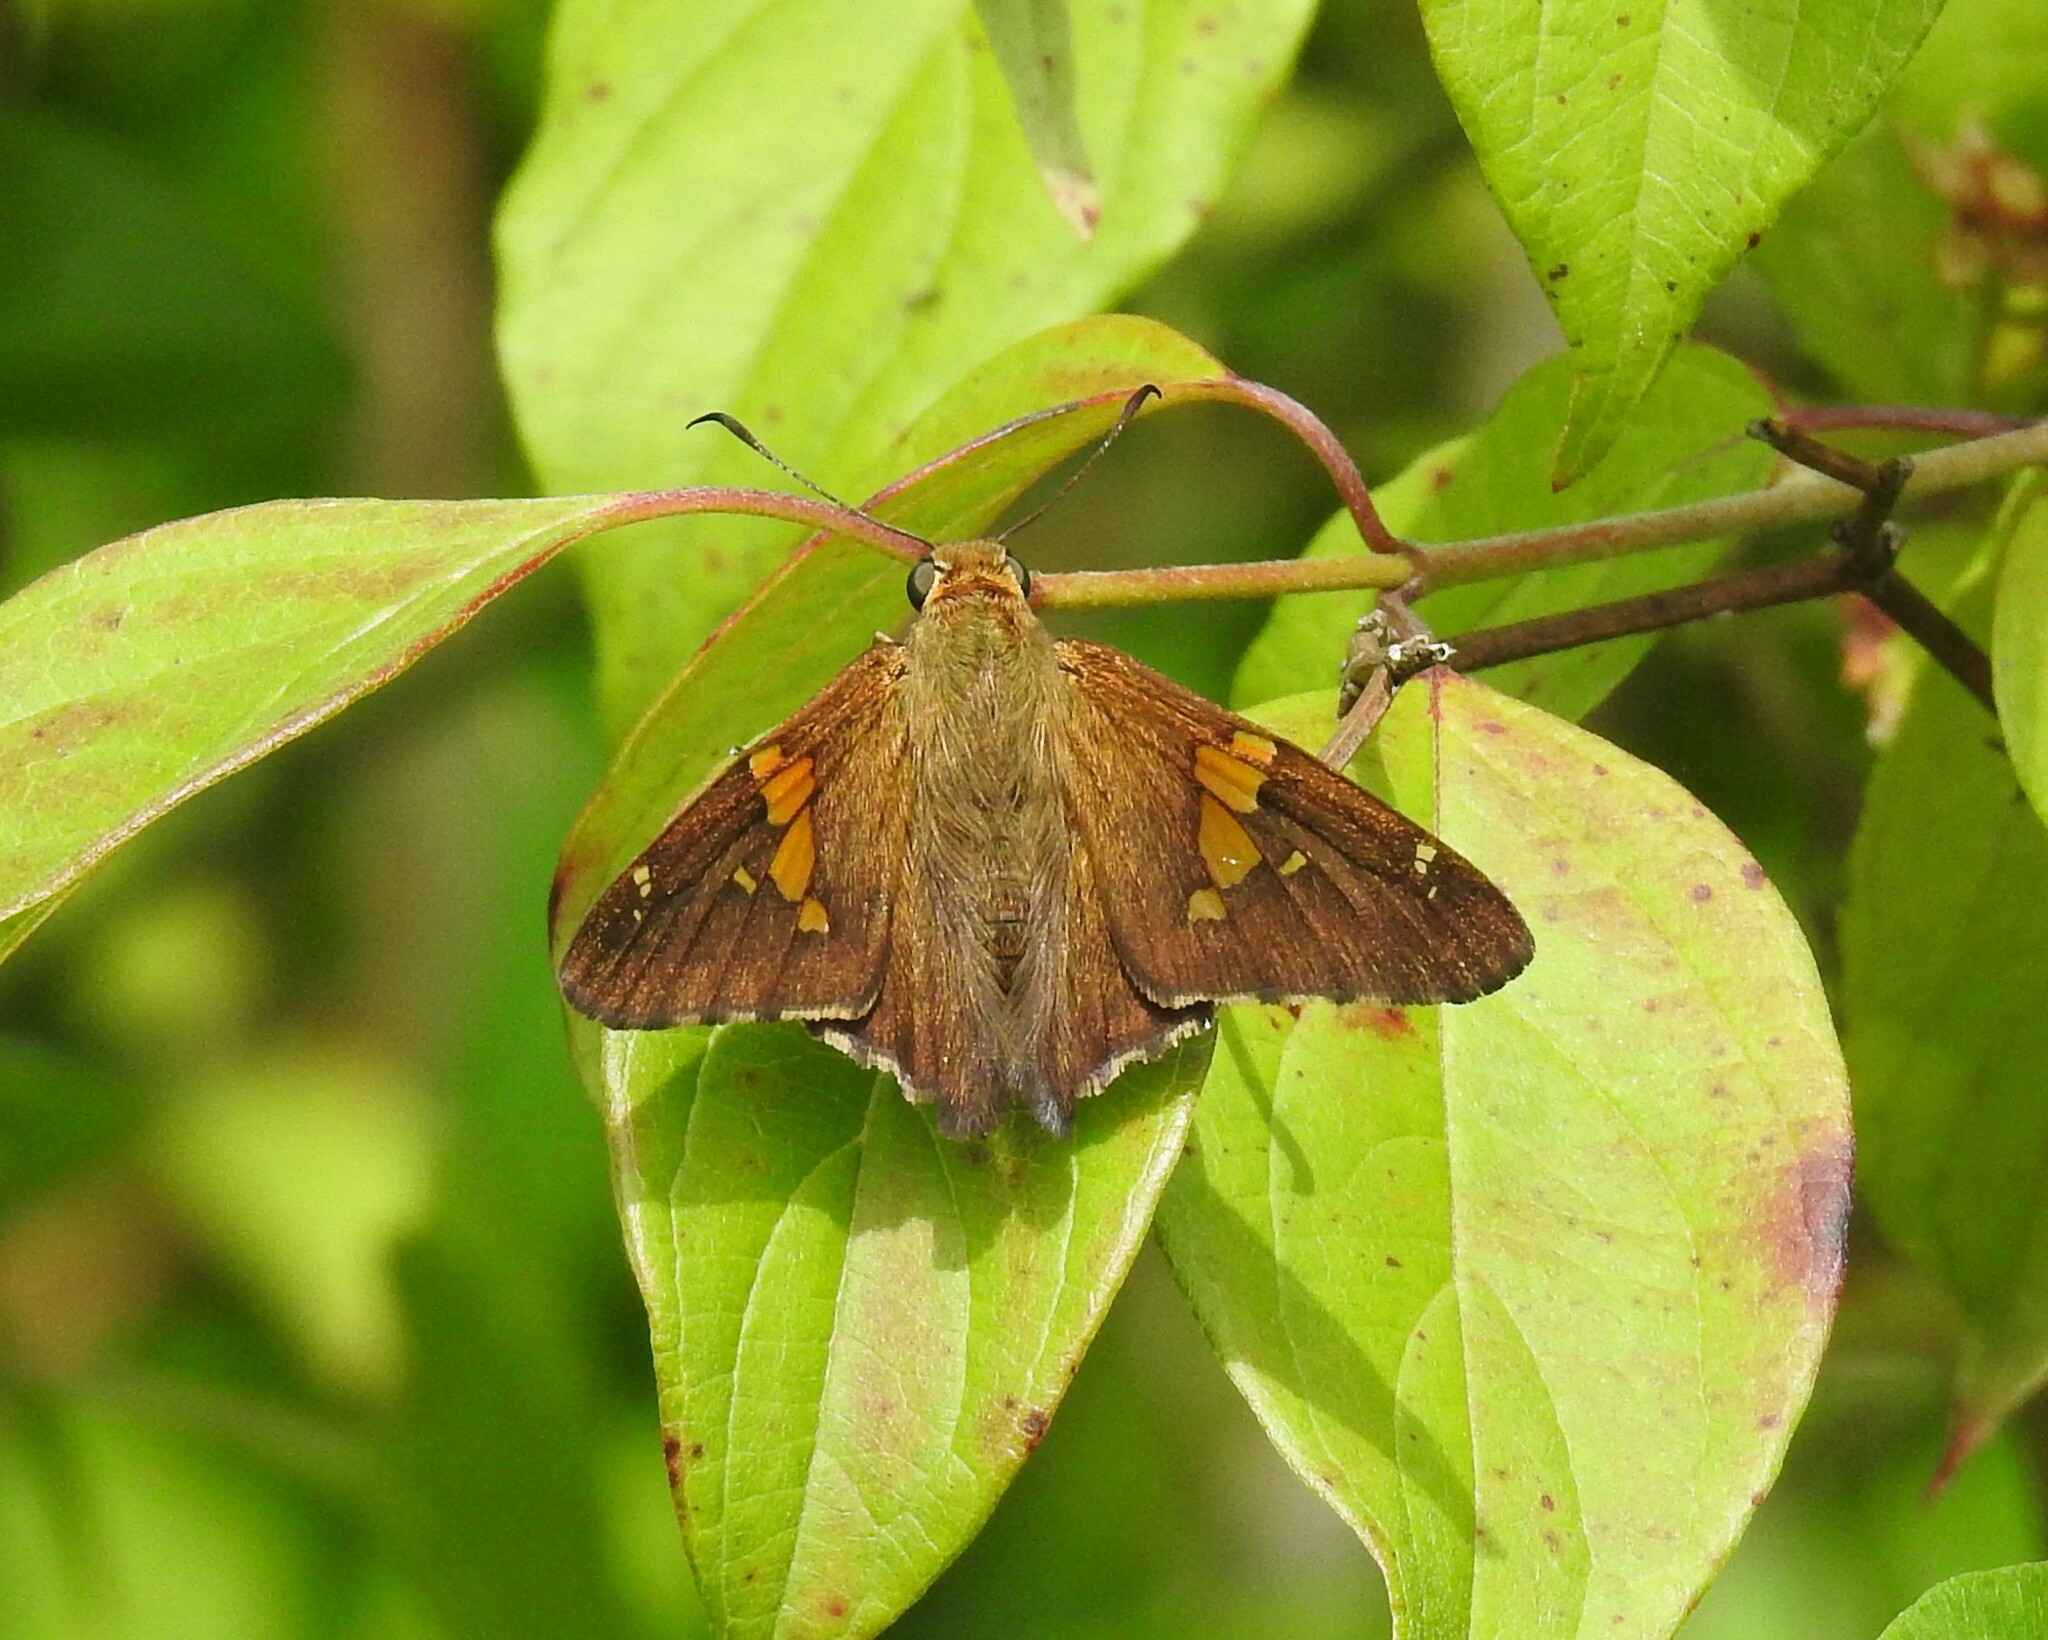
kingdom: Animalia
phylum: Arthropoda
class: Insecta
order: Lepidoptera
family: Hesperiidae
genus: Epargyreus
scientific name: Epargyreus clarus
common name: Silver-spotted skipper
